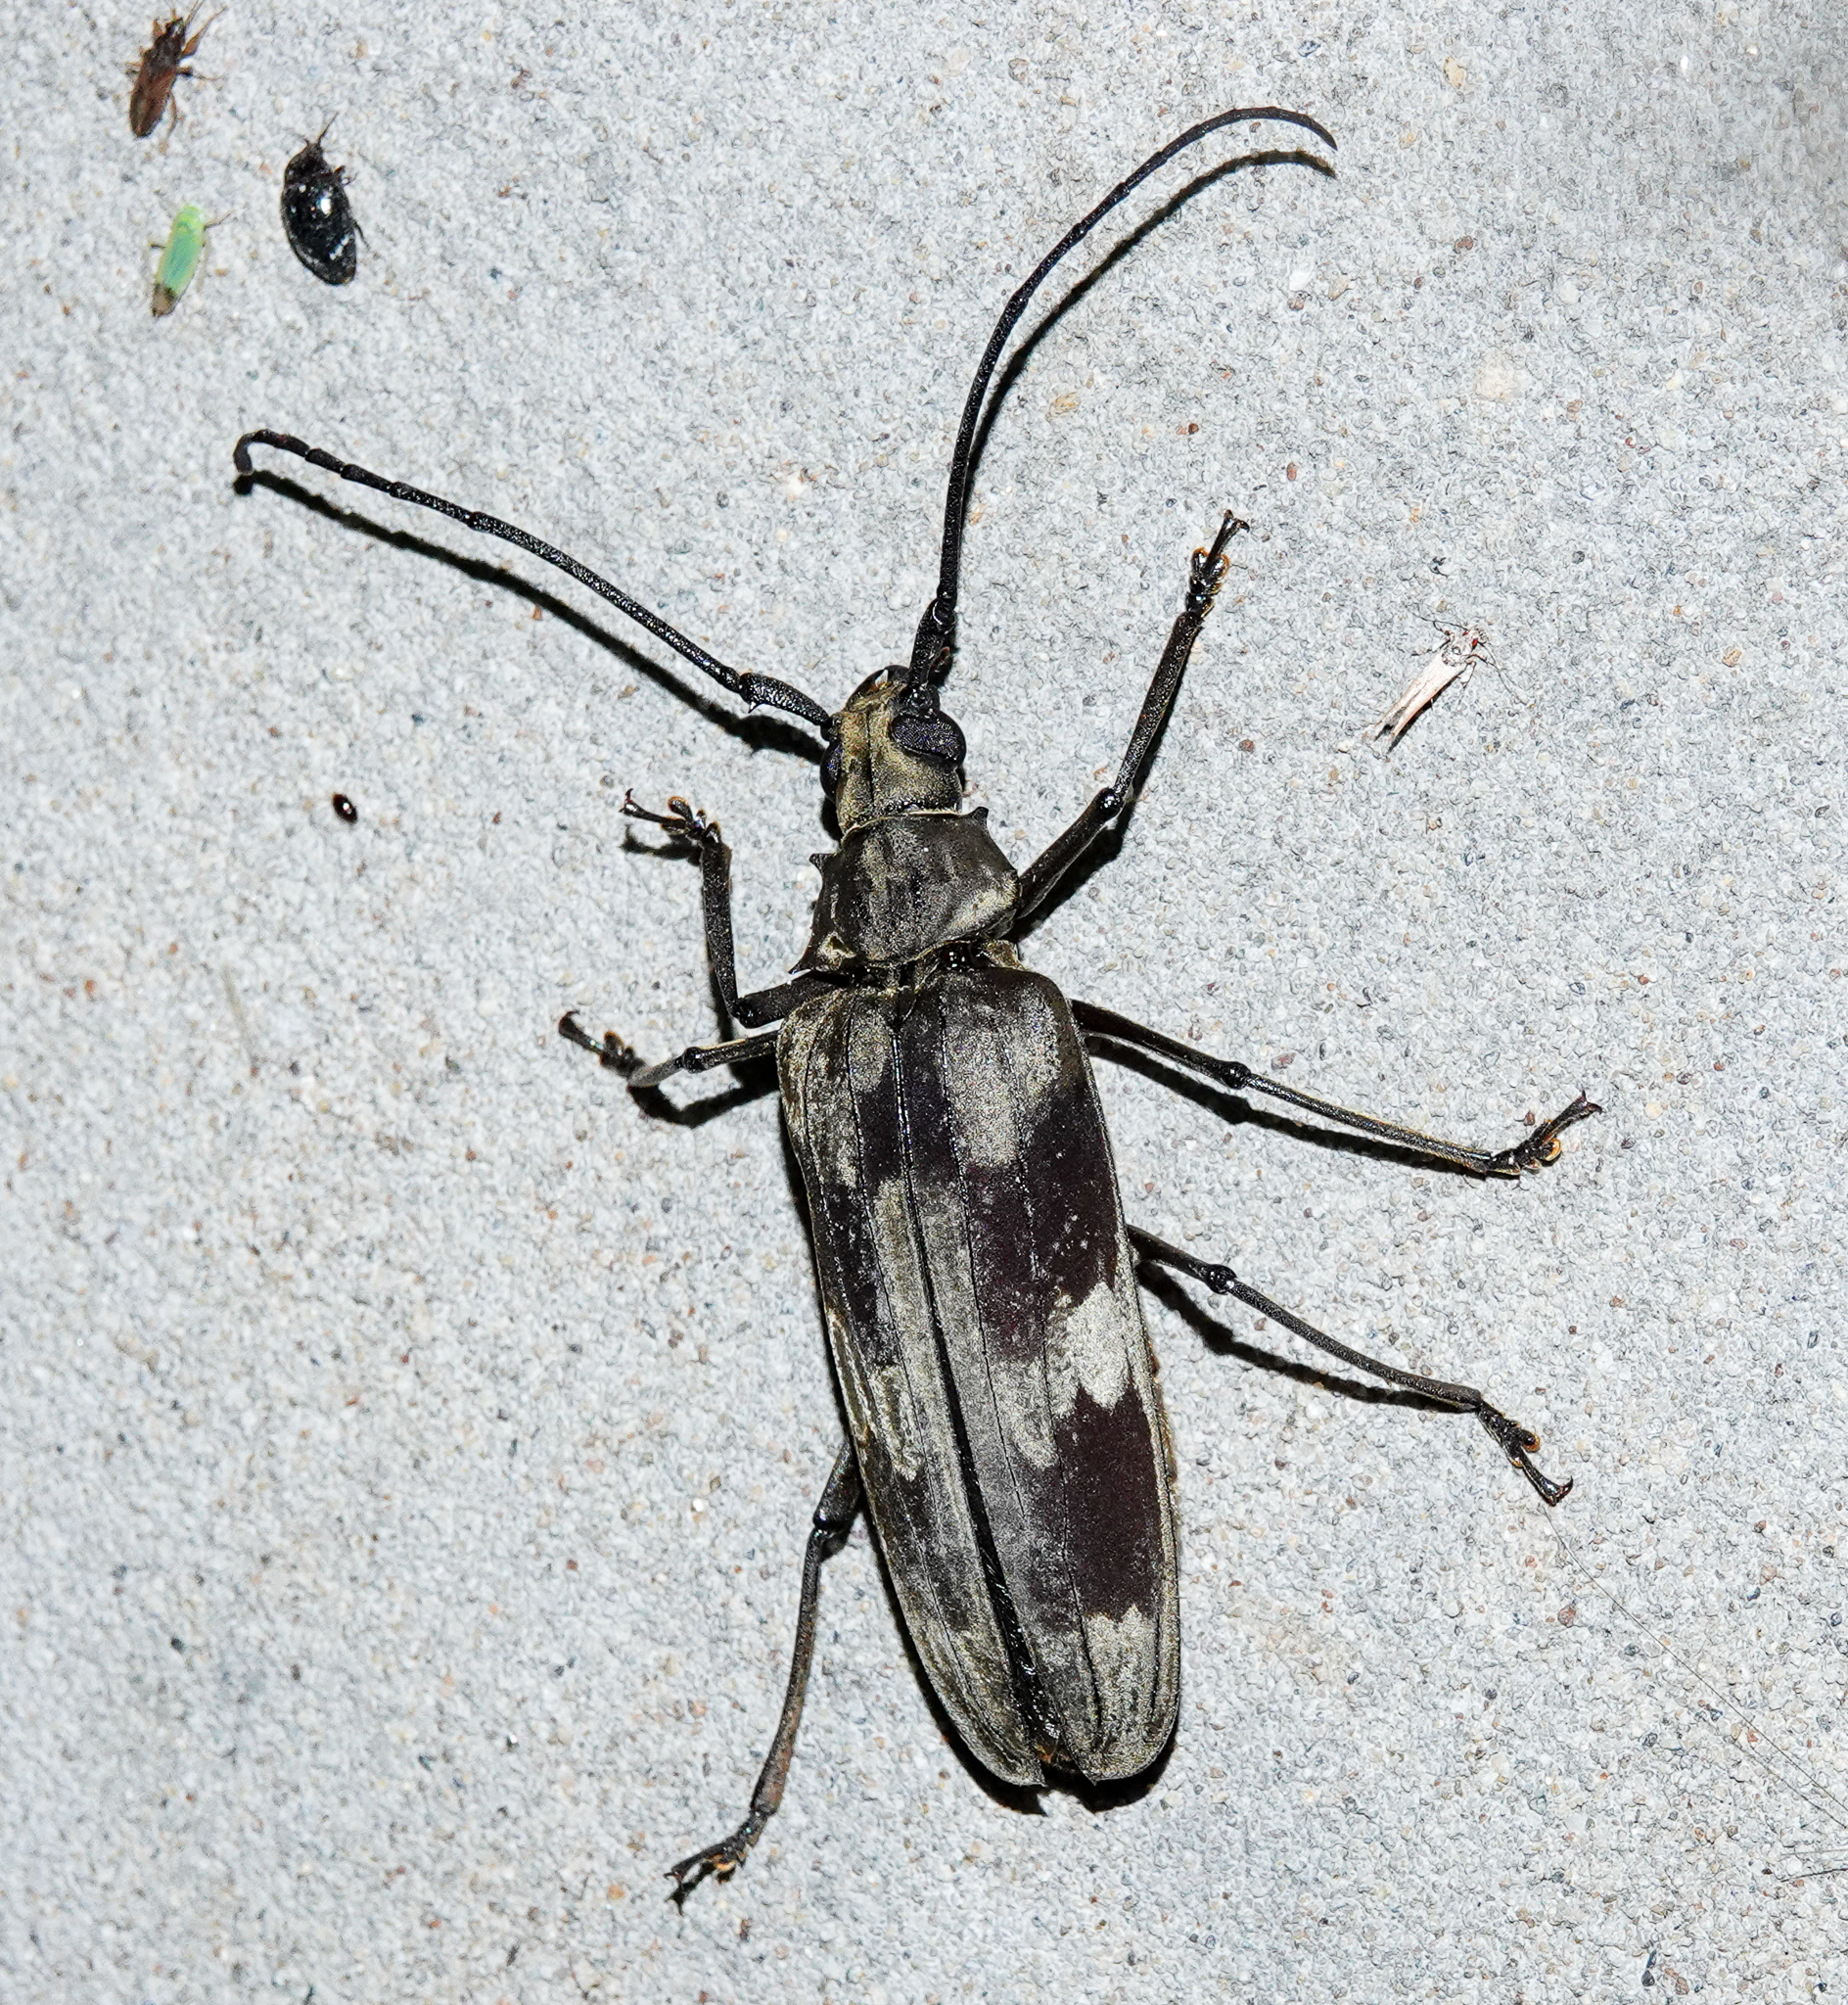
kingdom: Animalia
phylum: Arthropoda
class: Insecta
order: Coleoptera
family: Cerambycidae
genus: Baralipton
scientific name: Baralipton maculosum
